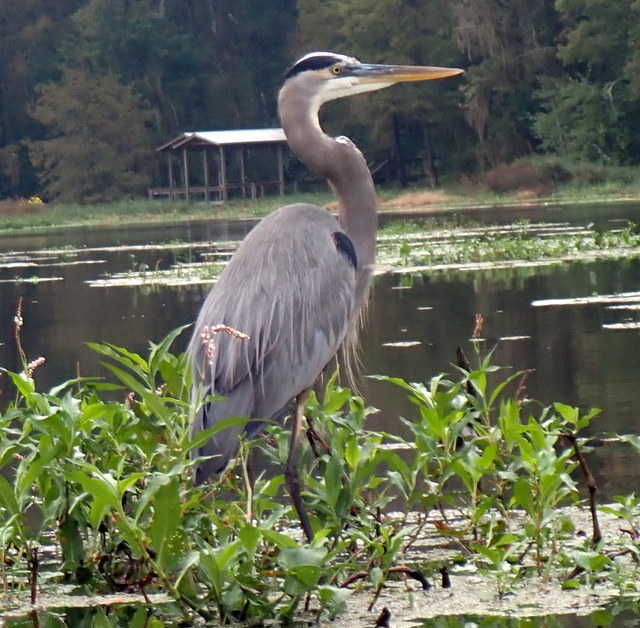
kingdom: Animalia
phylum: Chordata
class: Aves
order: Pelecaniformes
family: Ardeidae
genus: Ardea
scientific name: Ardea herodias
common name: Great blue heron
